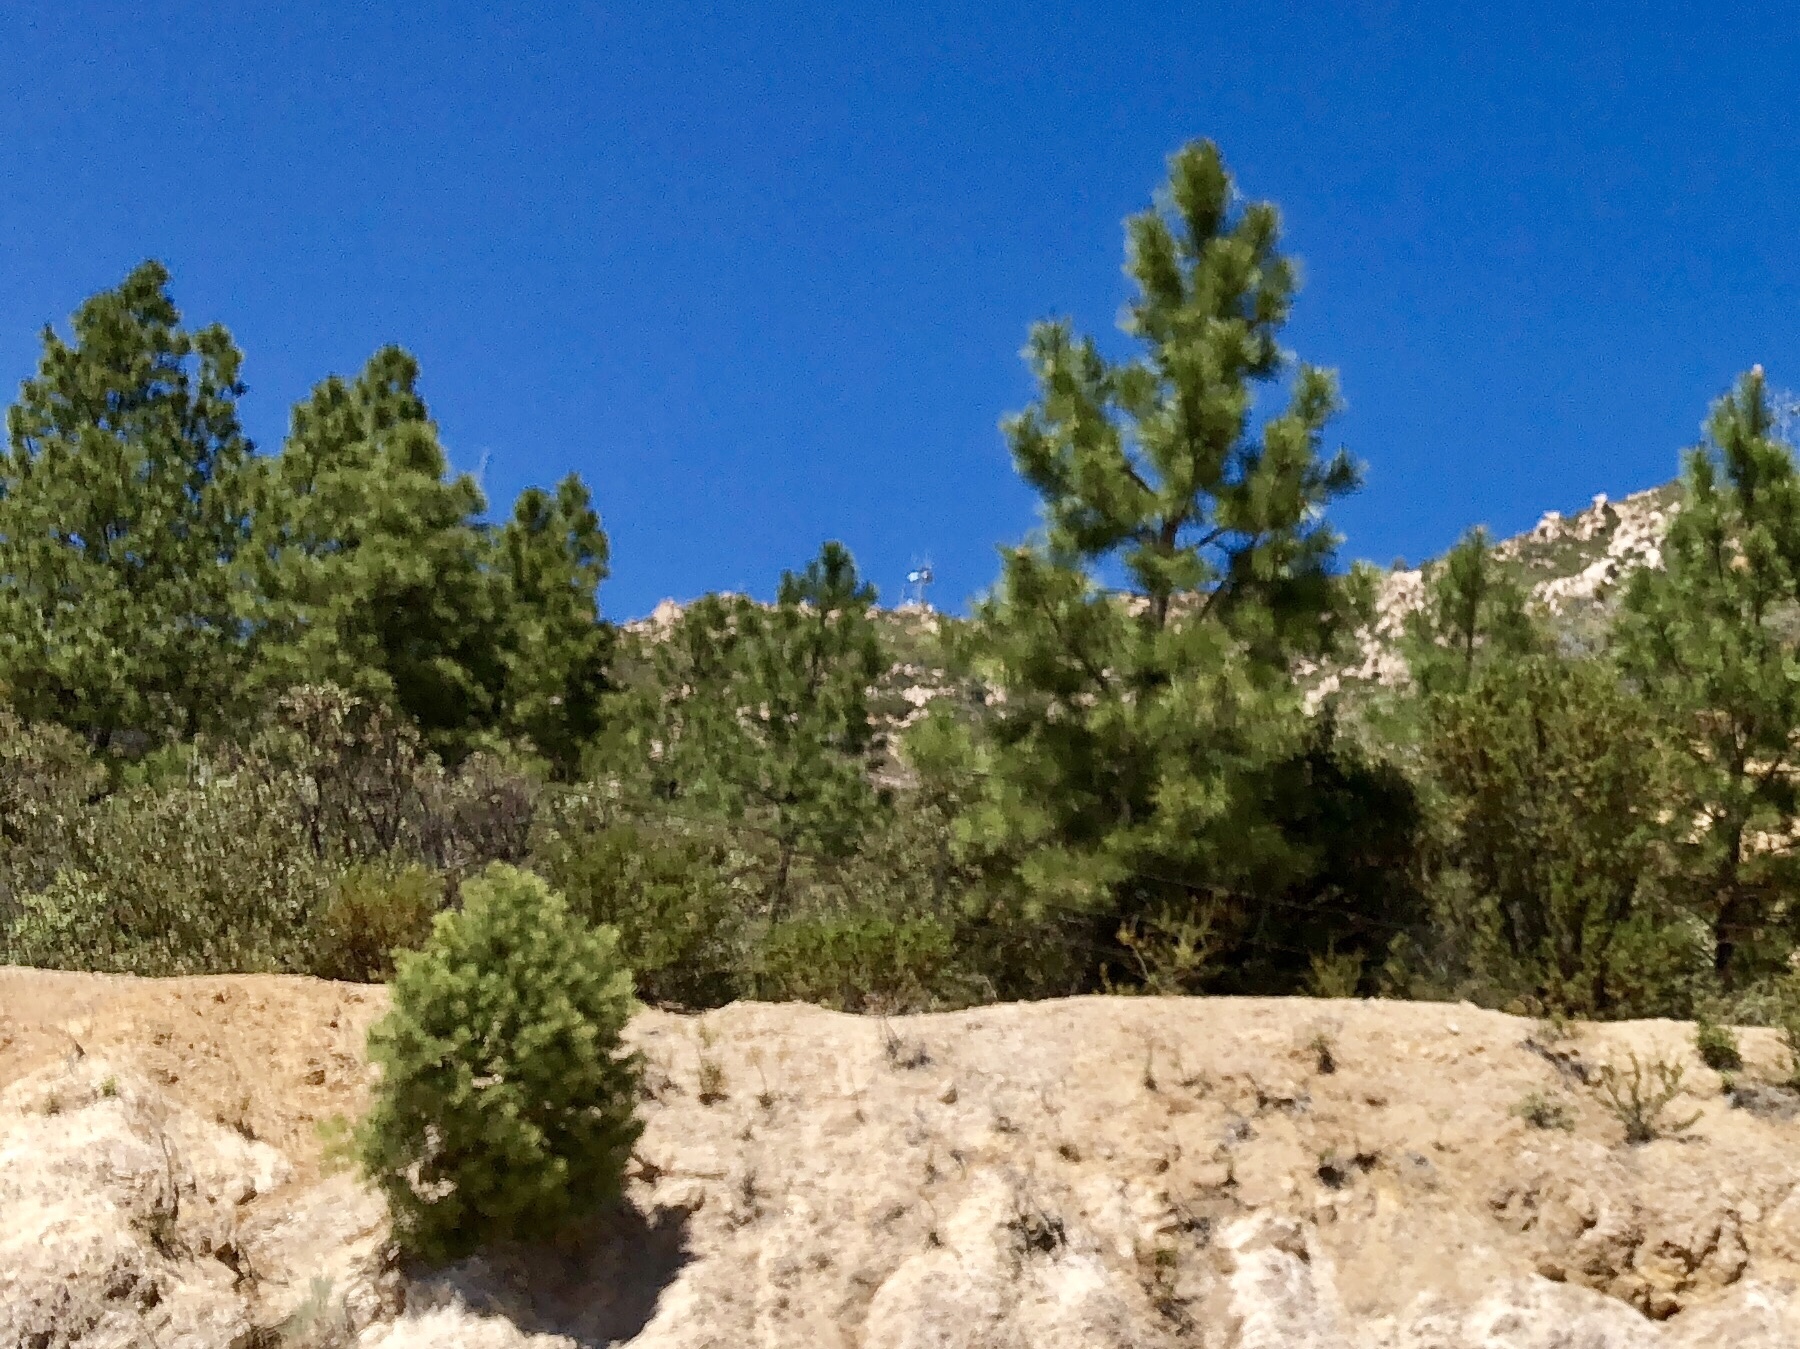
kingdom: Plantae
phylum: Tracheophyta
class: Pinopsida
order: Pinales
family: Pinaceae
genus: Pinus
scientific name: Pinus ponderosa
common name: Western yellow-pine
